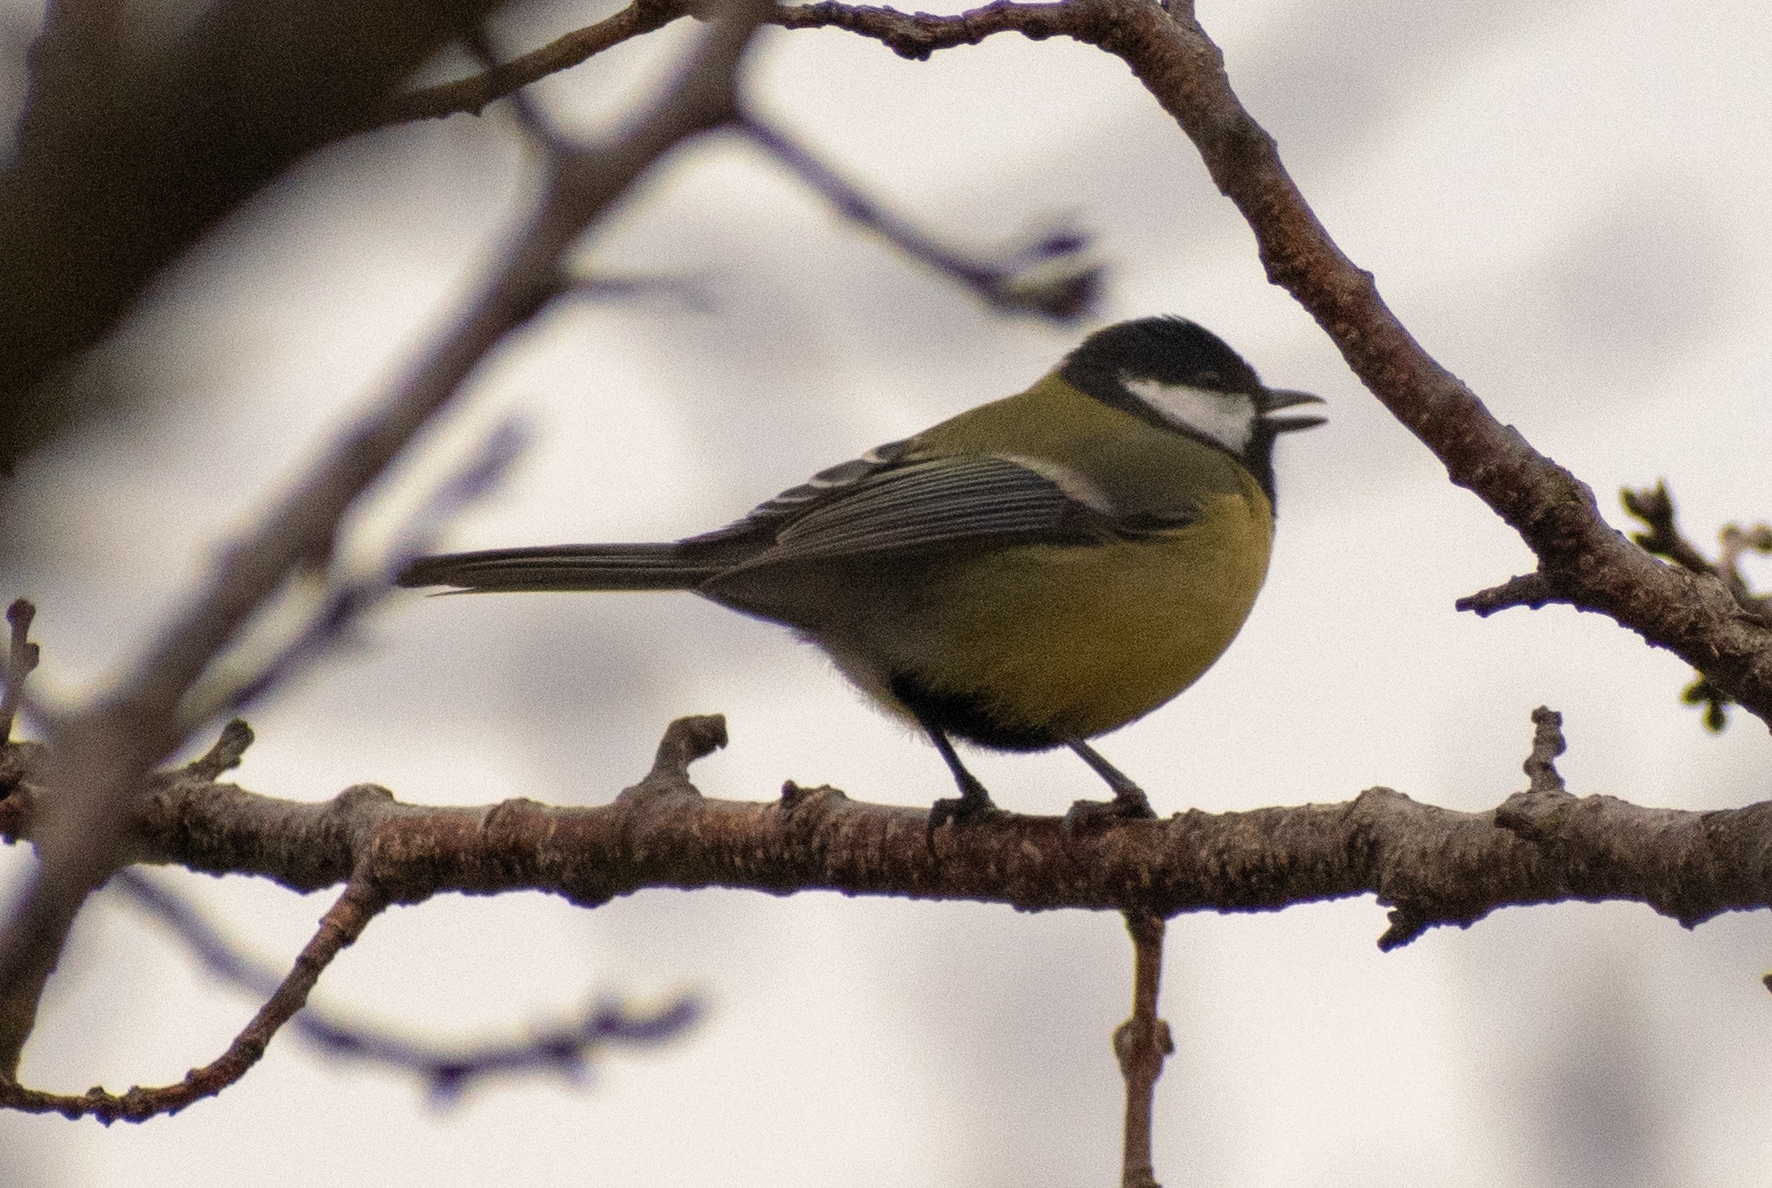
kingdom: Animalia
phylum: Chordata
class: Aves
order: Passeriformes
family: Paridae
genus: Parus
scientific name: Parus major
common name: Great tit
